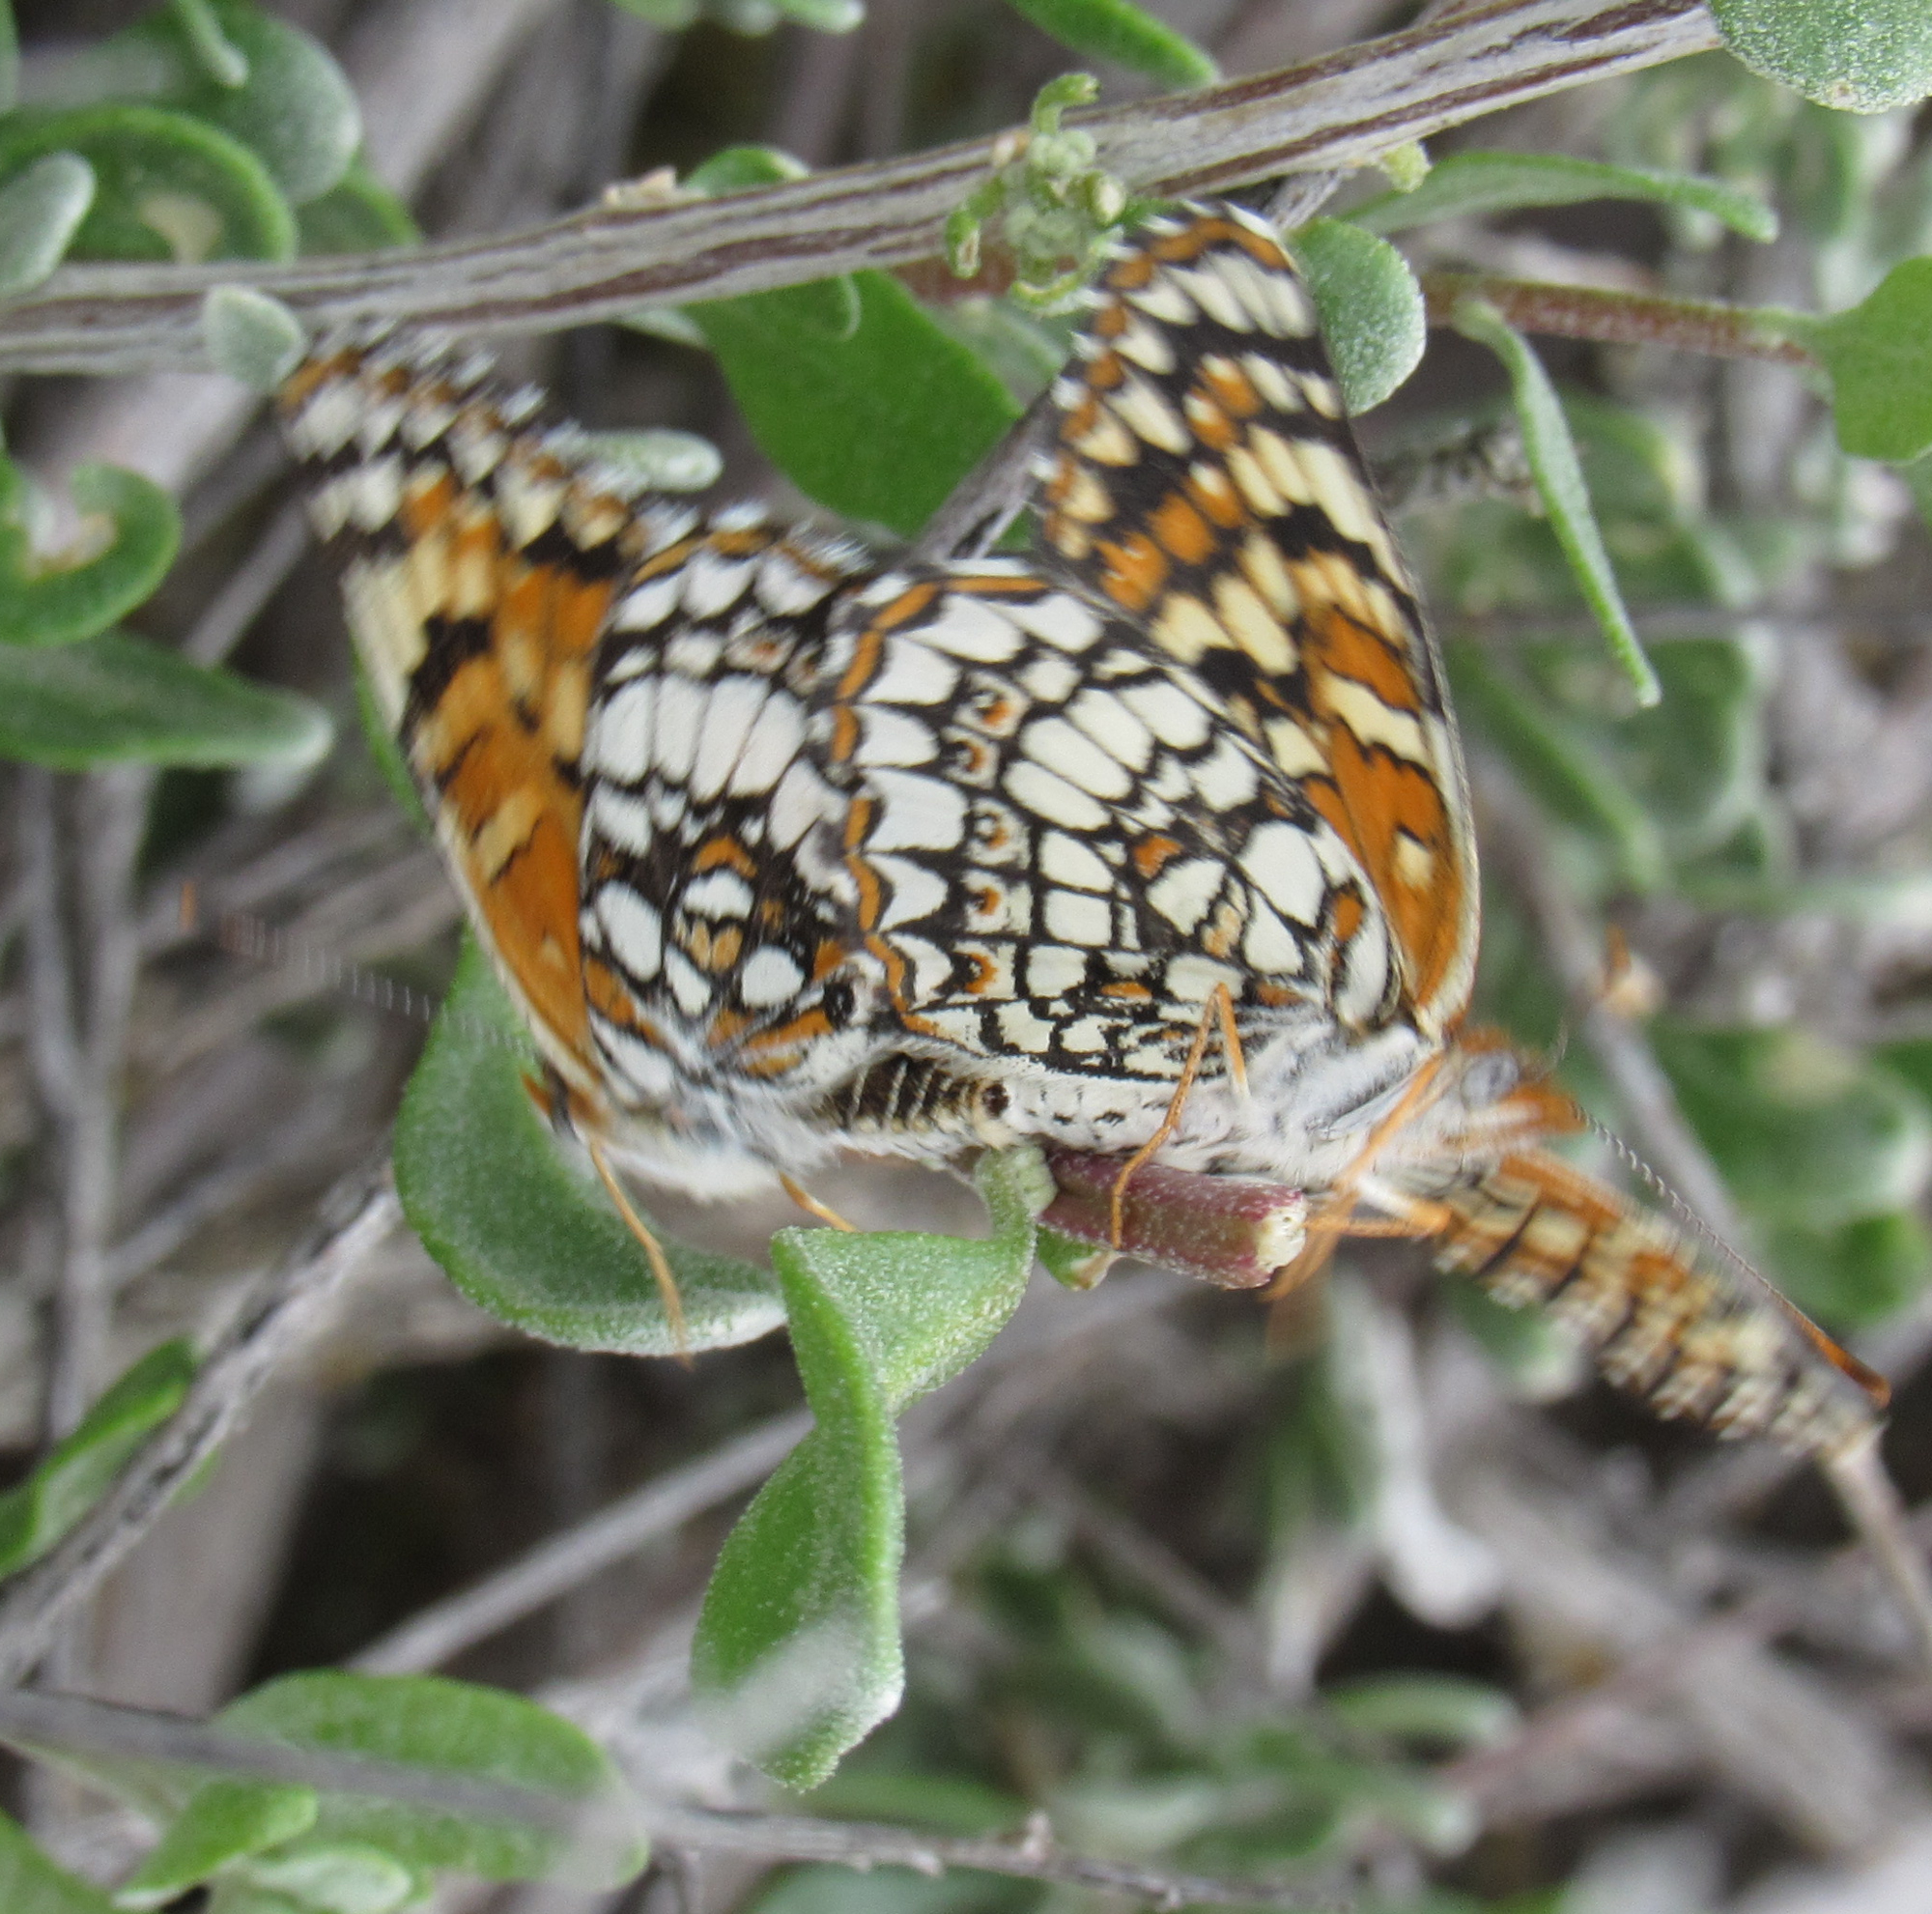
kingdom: Animalia
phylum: Arthropoda
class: Insecta
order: Lepidoptera
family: Nymphalidae
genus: Chlosyne
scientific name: Chlosyne acastus
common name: Sagebrush checkerspot
